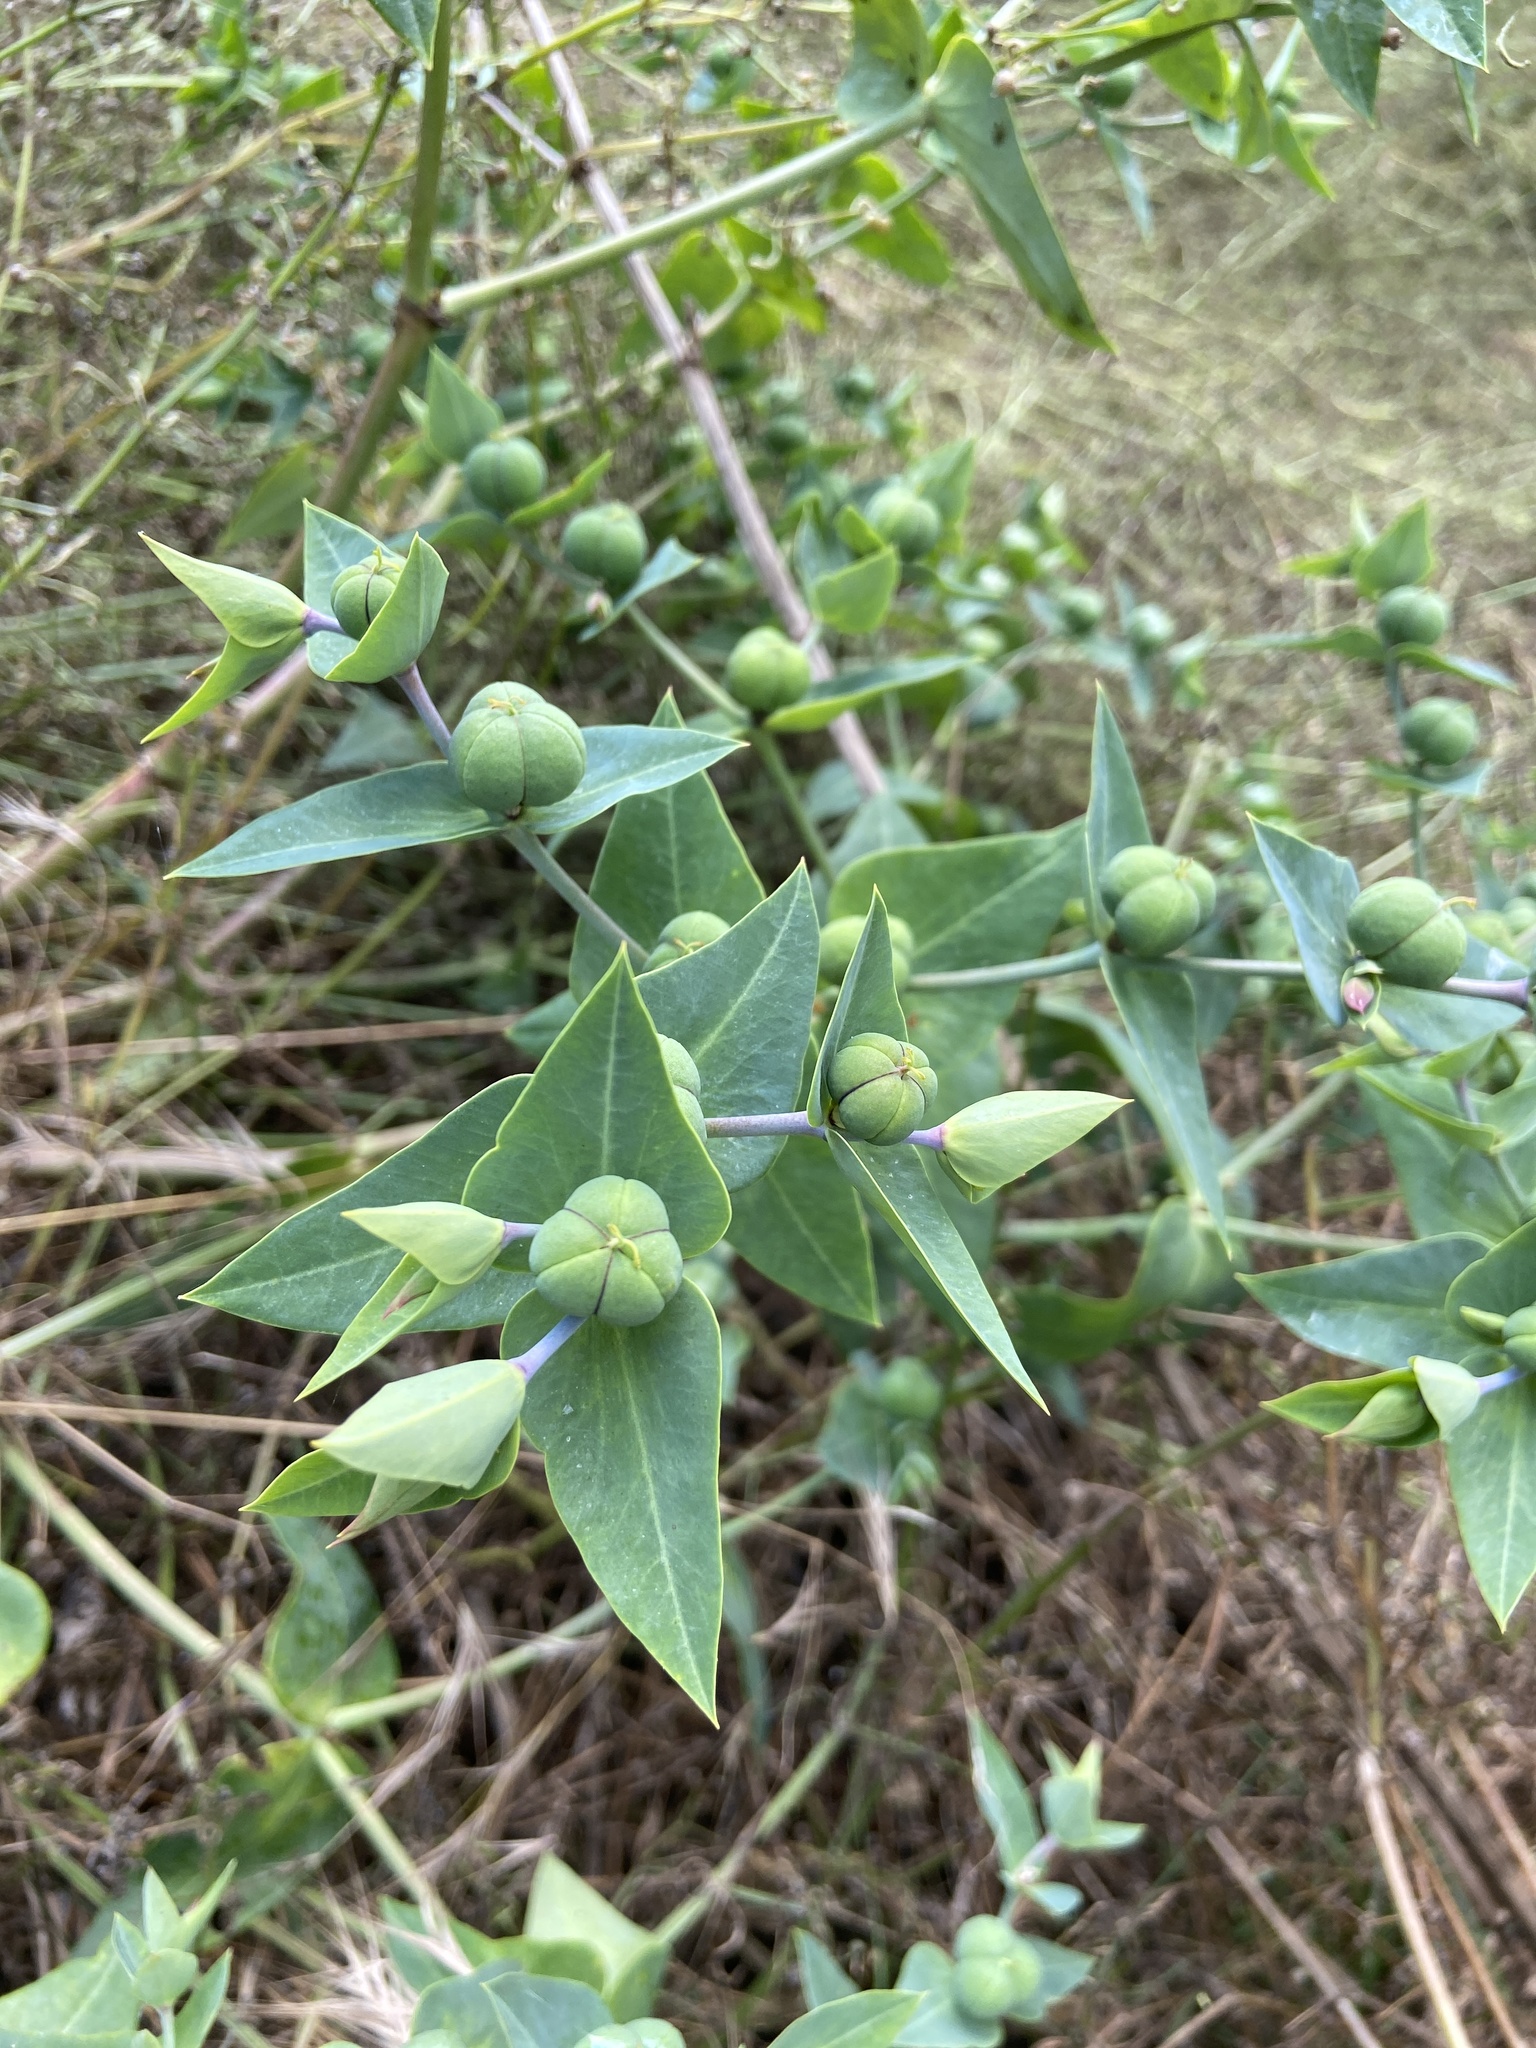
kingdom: Plantae
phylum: Tracheophyta
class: Magnoliopsida
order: Malpighiales
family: Euphorbiaceae
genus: Euphorbia
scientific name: Euphorbia lathyris
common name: Caper spurge
